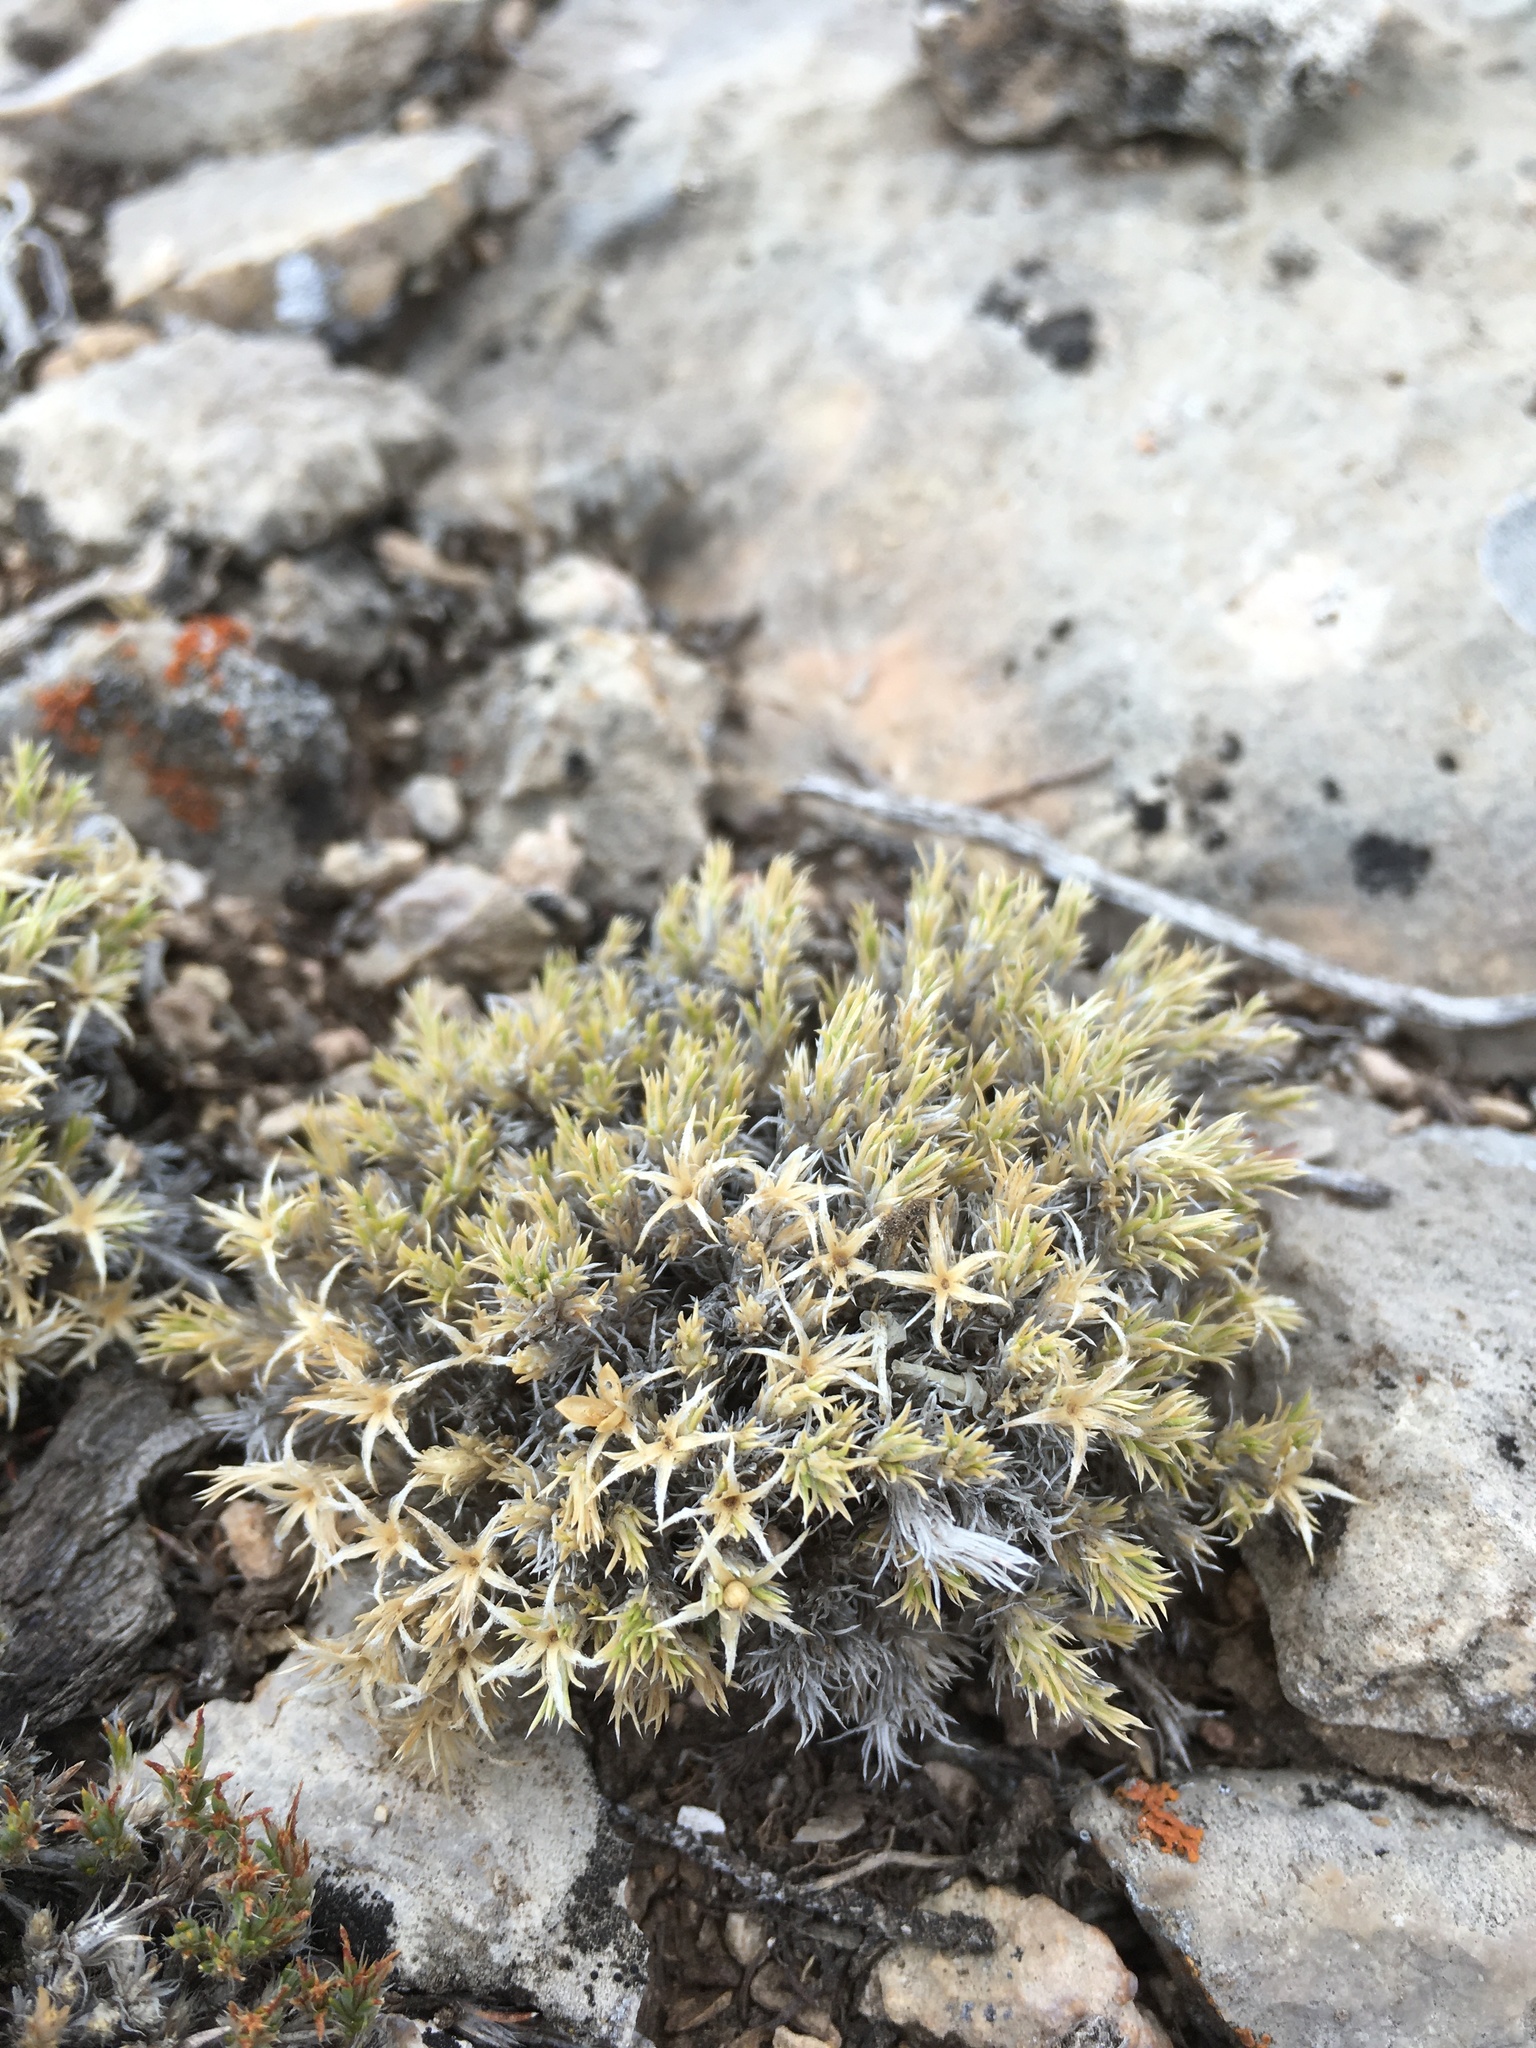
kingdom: Plantae
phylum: Tracheophyta
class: Magnoliopsida
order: Ericales
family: Polemoniaceae
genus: Phlox
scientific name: Phlox hoodii
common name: Moss phlox
